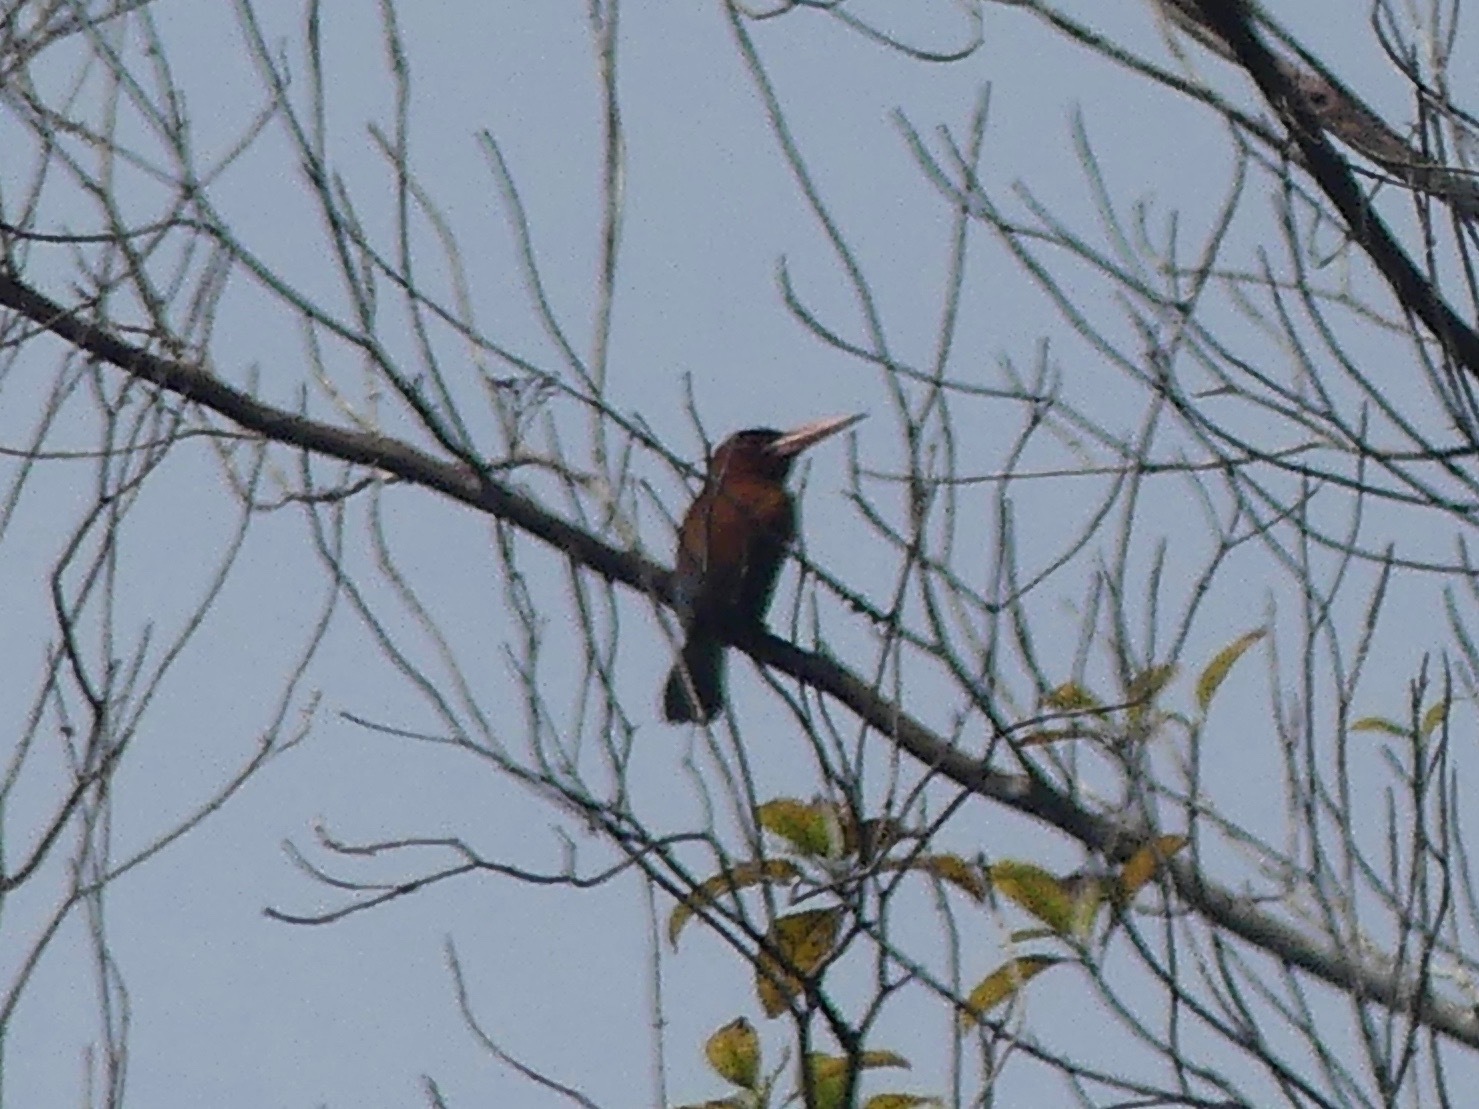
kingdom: Animalia
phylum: Chordata
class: Aves
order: Piciformes
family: Galbulidae
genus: Galbalcyrhynchus
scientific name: Galbalcyrhynchus purusianus
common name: Purus jacamar
